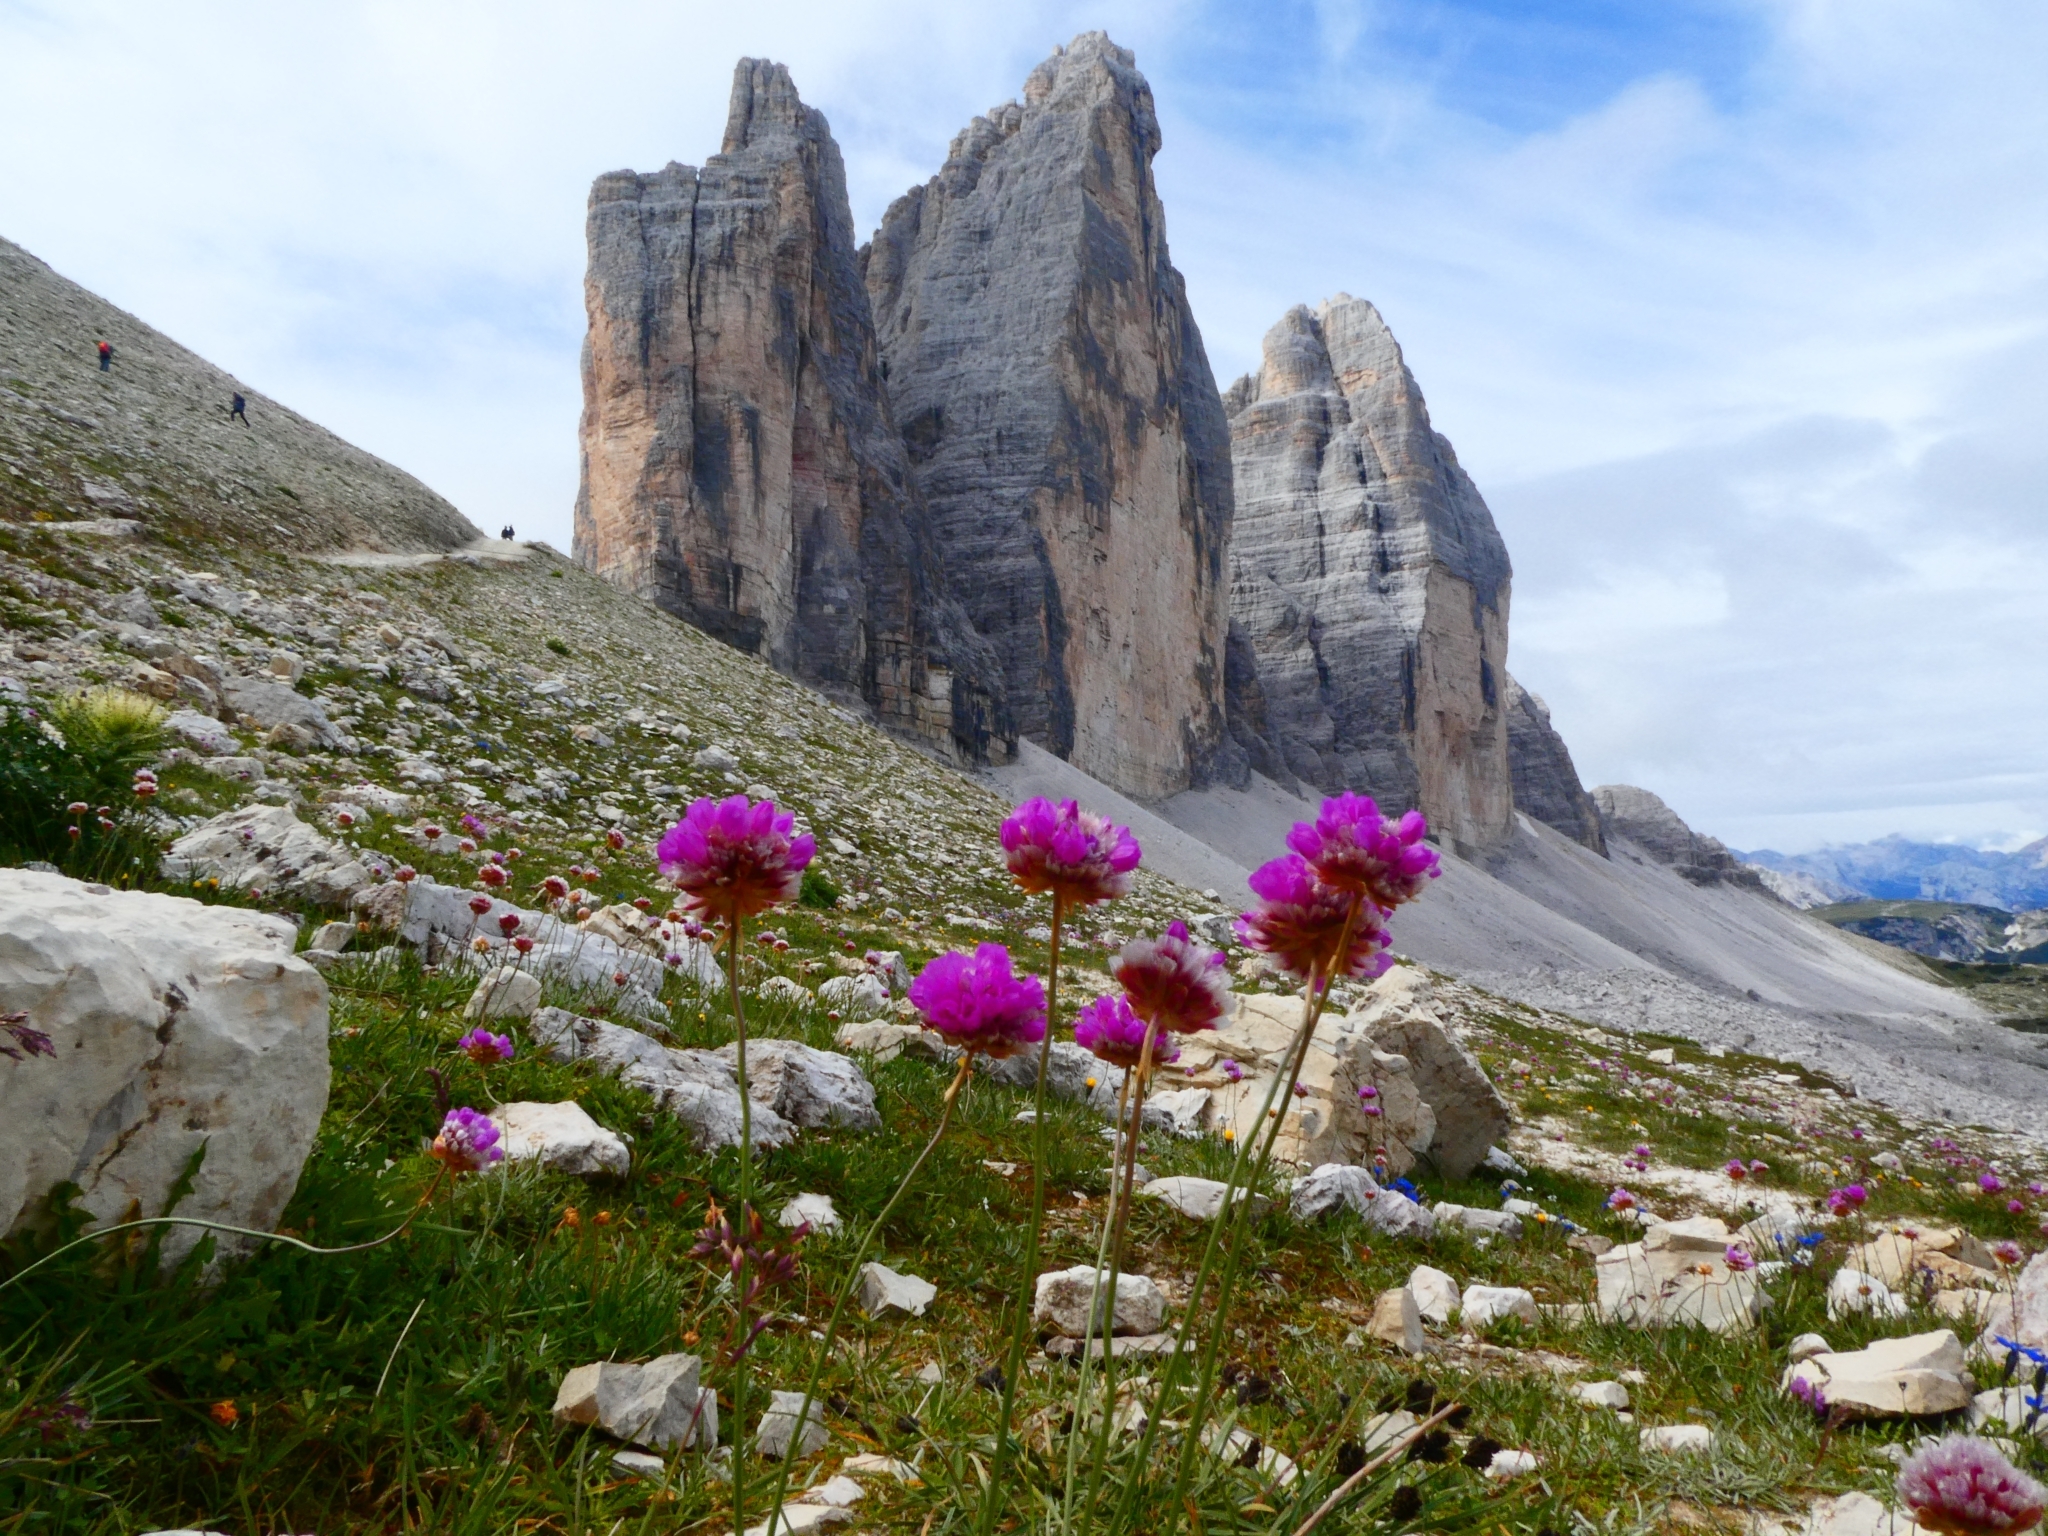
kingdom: Plantae
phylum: Tracheophyta
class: Magnoliopsida
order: Caryophyllales
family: Plumbaginaceae
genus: Armeria
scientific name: Armeria alpina
